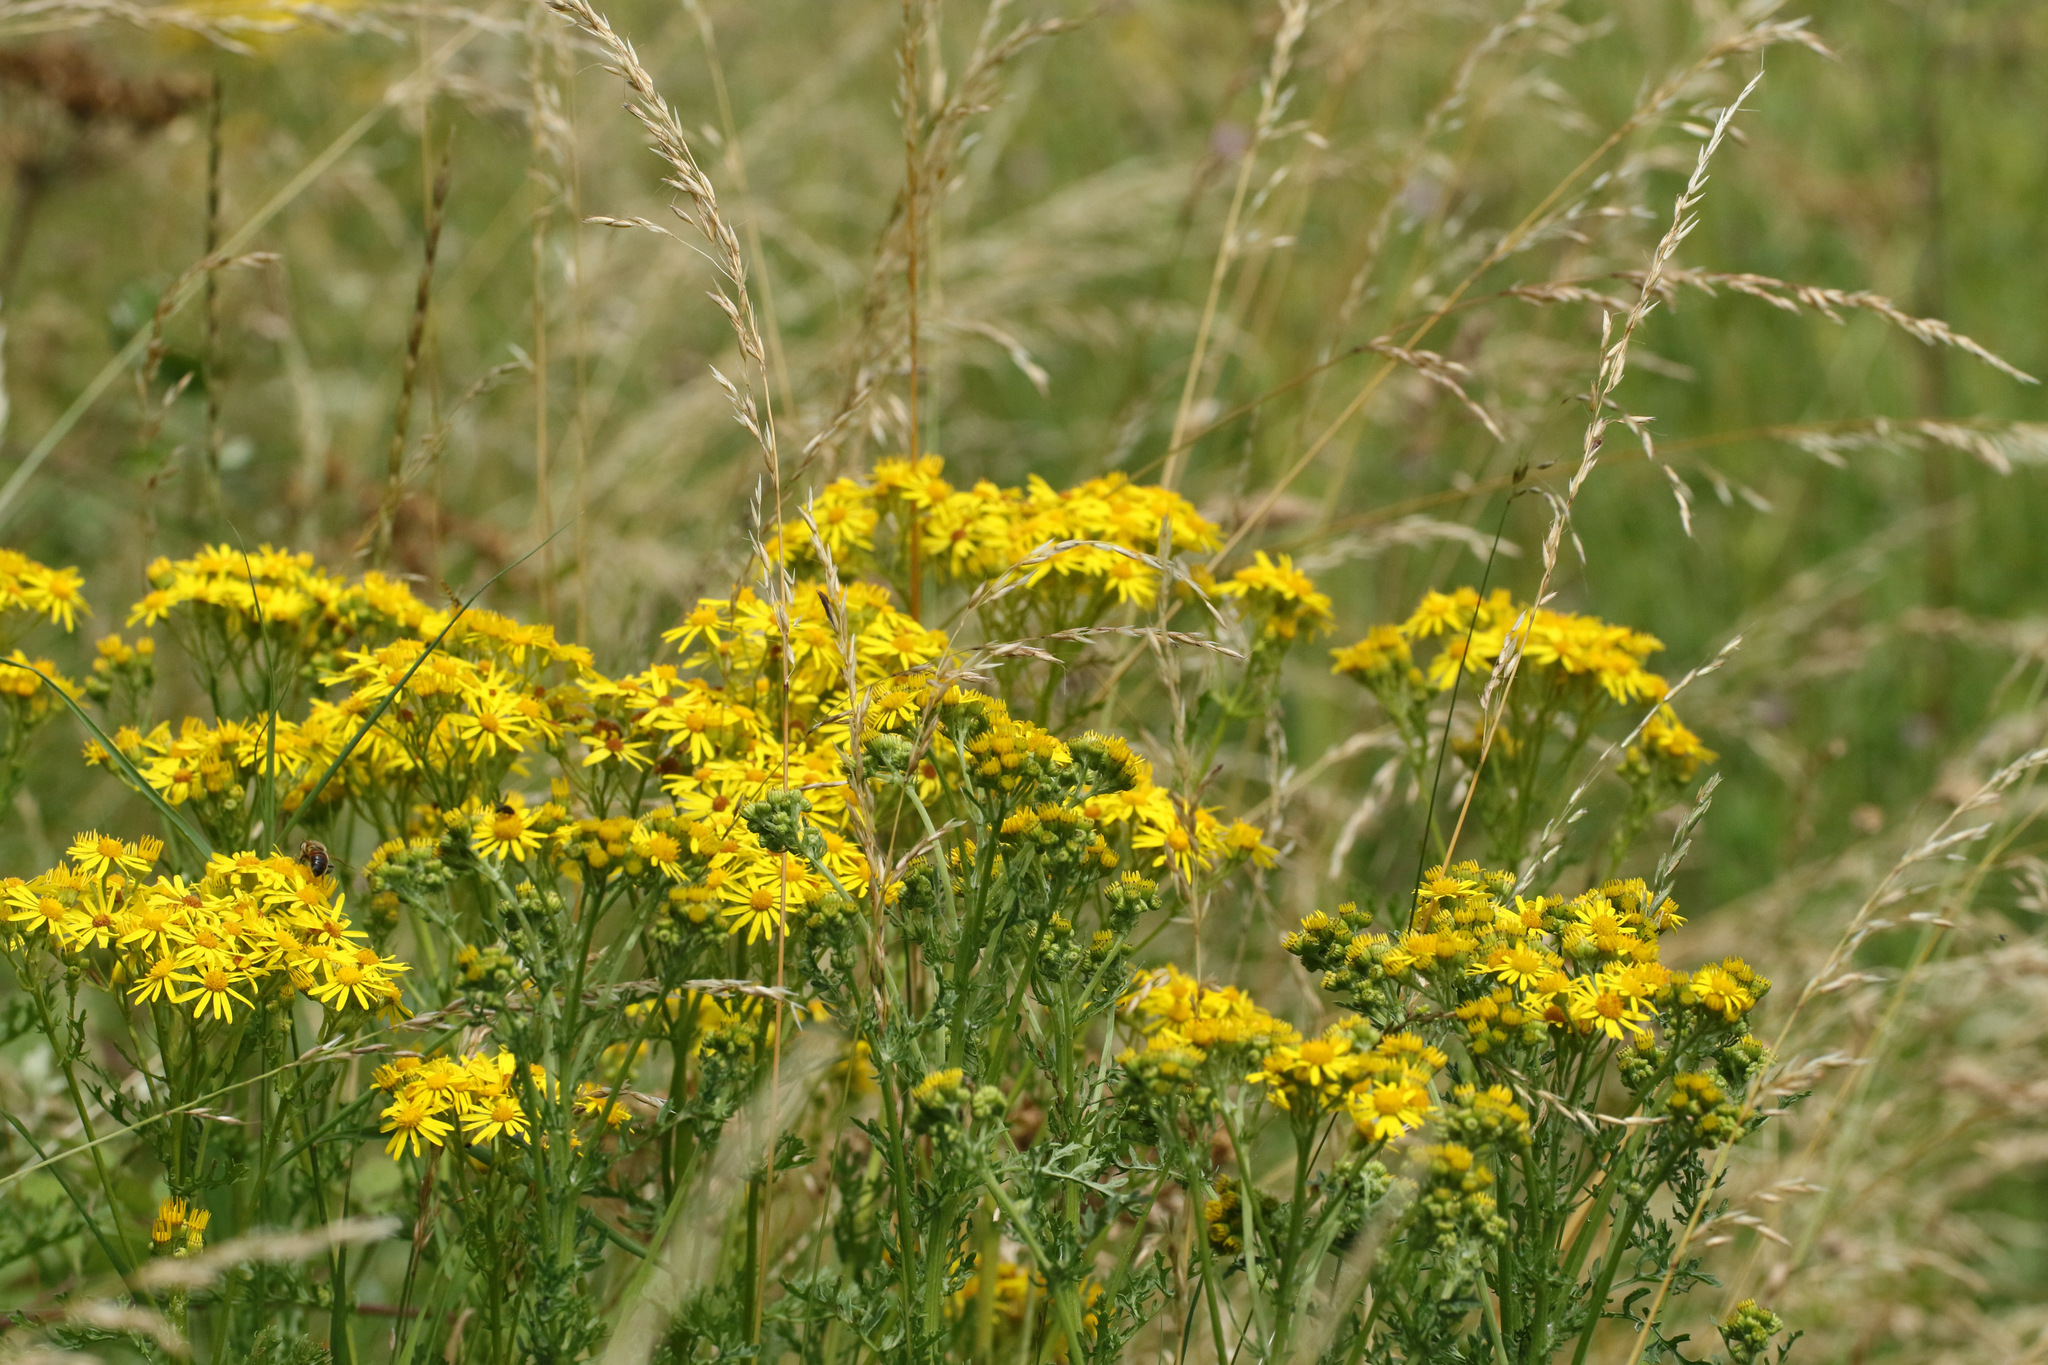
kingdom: Plantae
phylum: Tracheophyta
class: Magnoliopsida
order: Asterales
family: Asteraceae
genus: Jacobaea
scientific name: Jacobaea vulgaris
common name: Stinking willie
